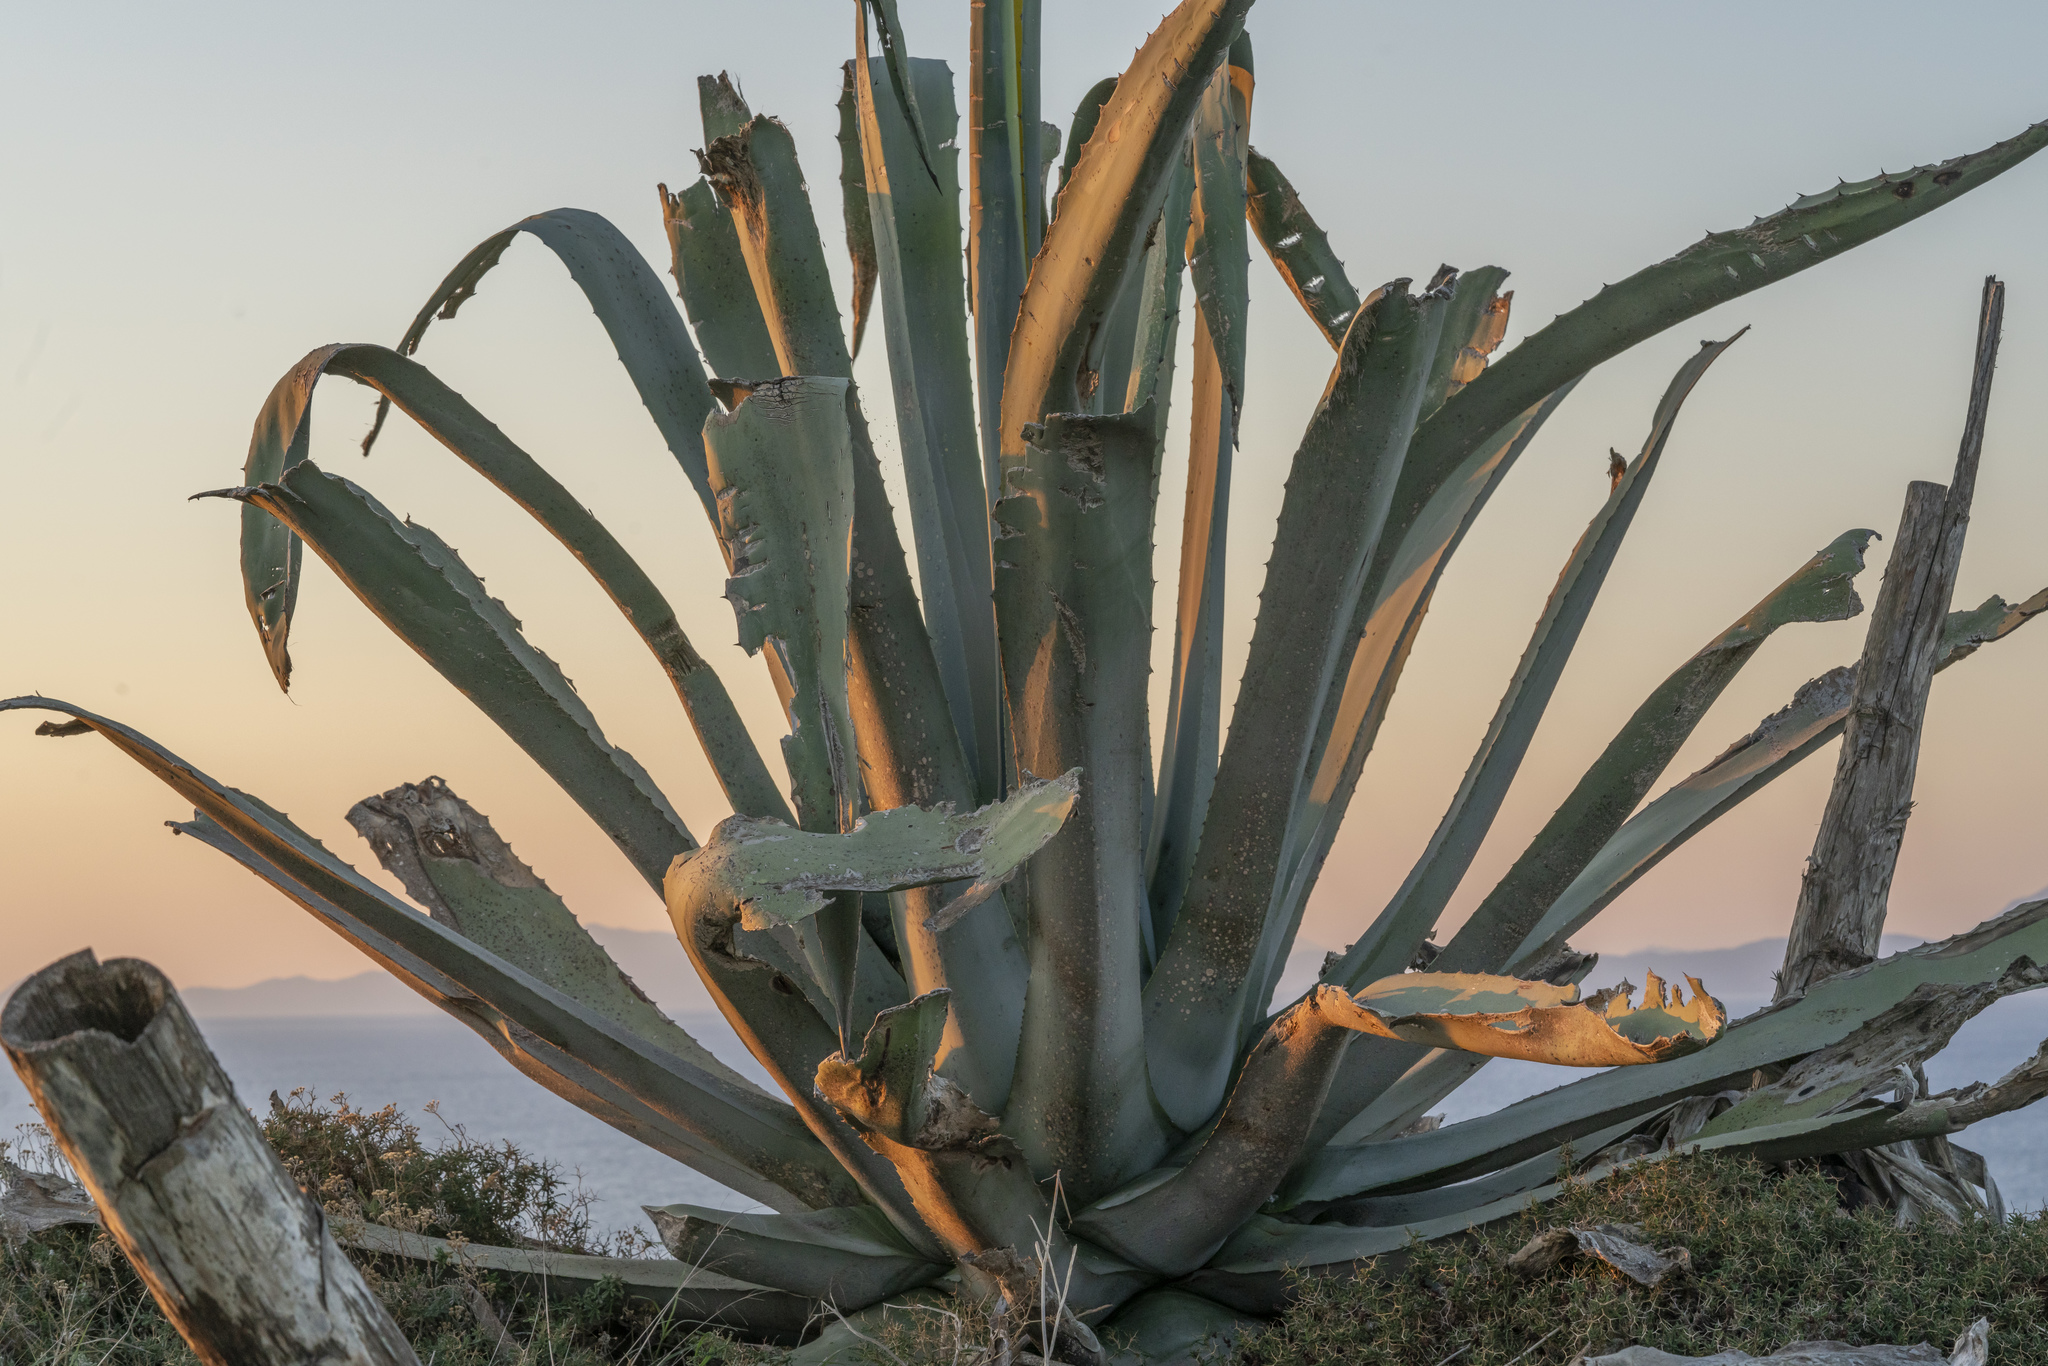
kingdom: Plantae
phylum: Tracheophyta
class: Liliopsida
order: Asparagales
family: Asparagaceae
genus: Agave
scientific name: Agave americana
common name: Centuryplant
